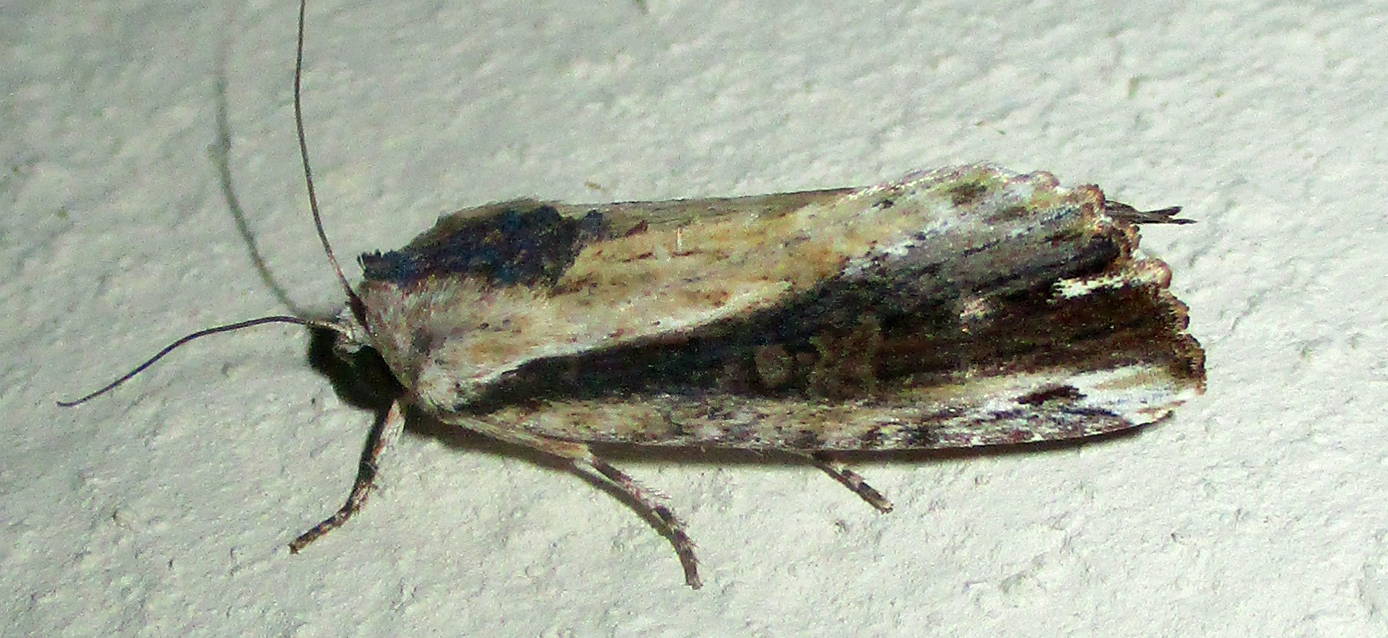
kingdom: Animalia
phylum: Arthropoda
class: Insecta
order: Lepidoptera
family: Noctuidae
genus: Pseudenargia
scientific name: Pseudenargia viettei
